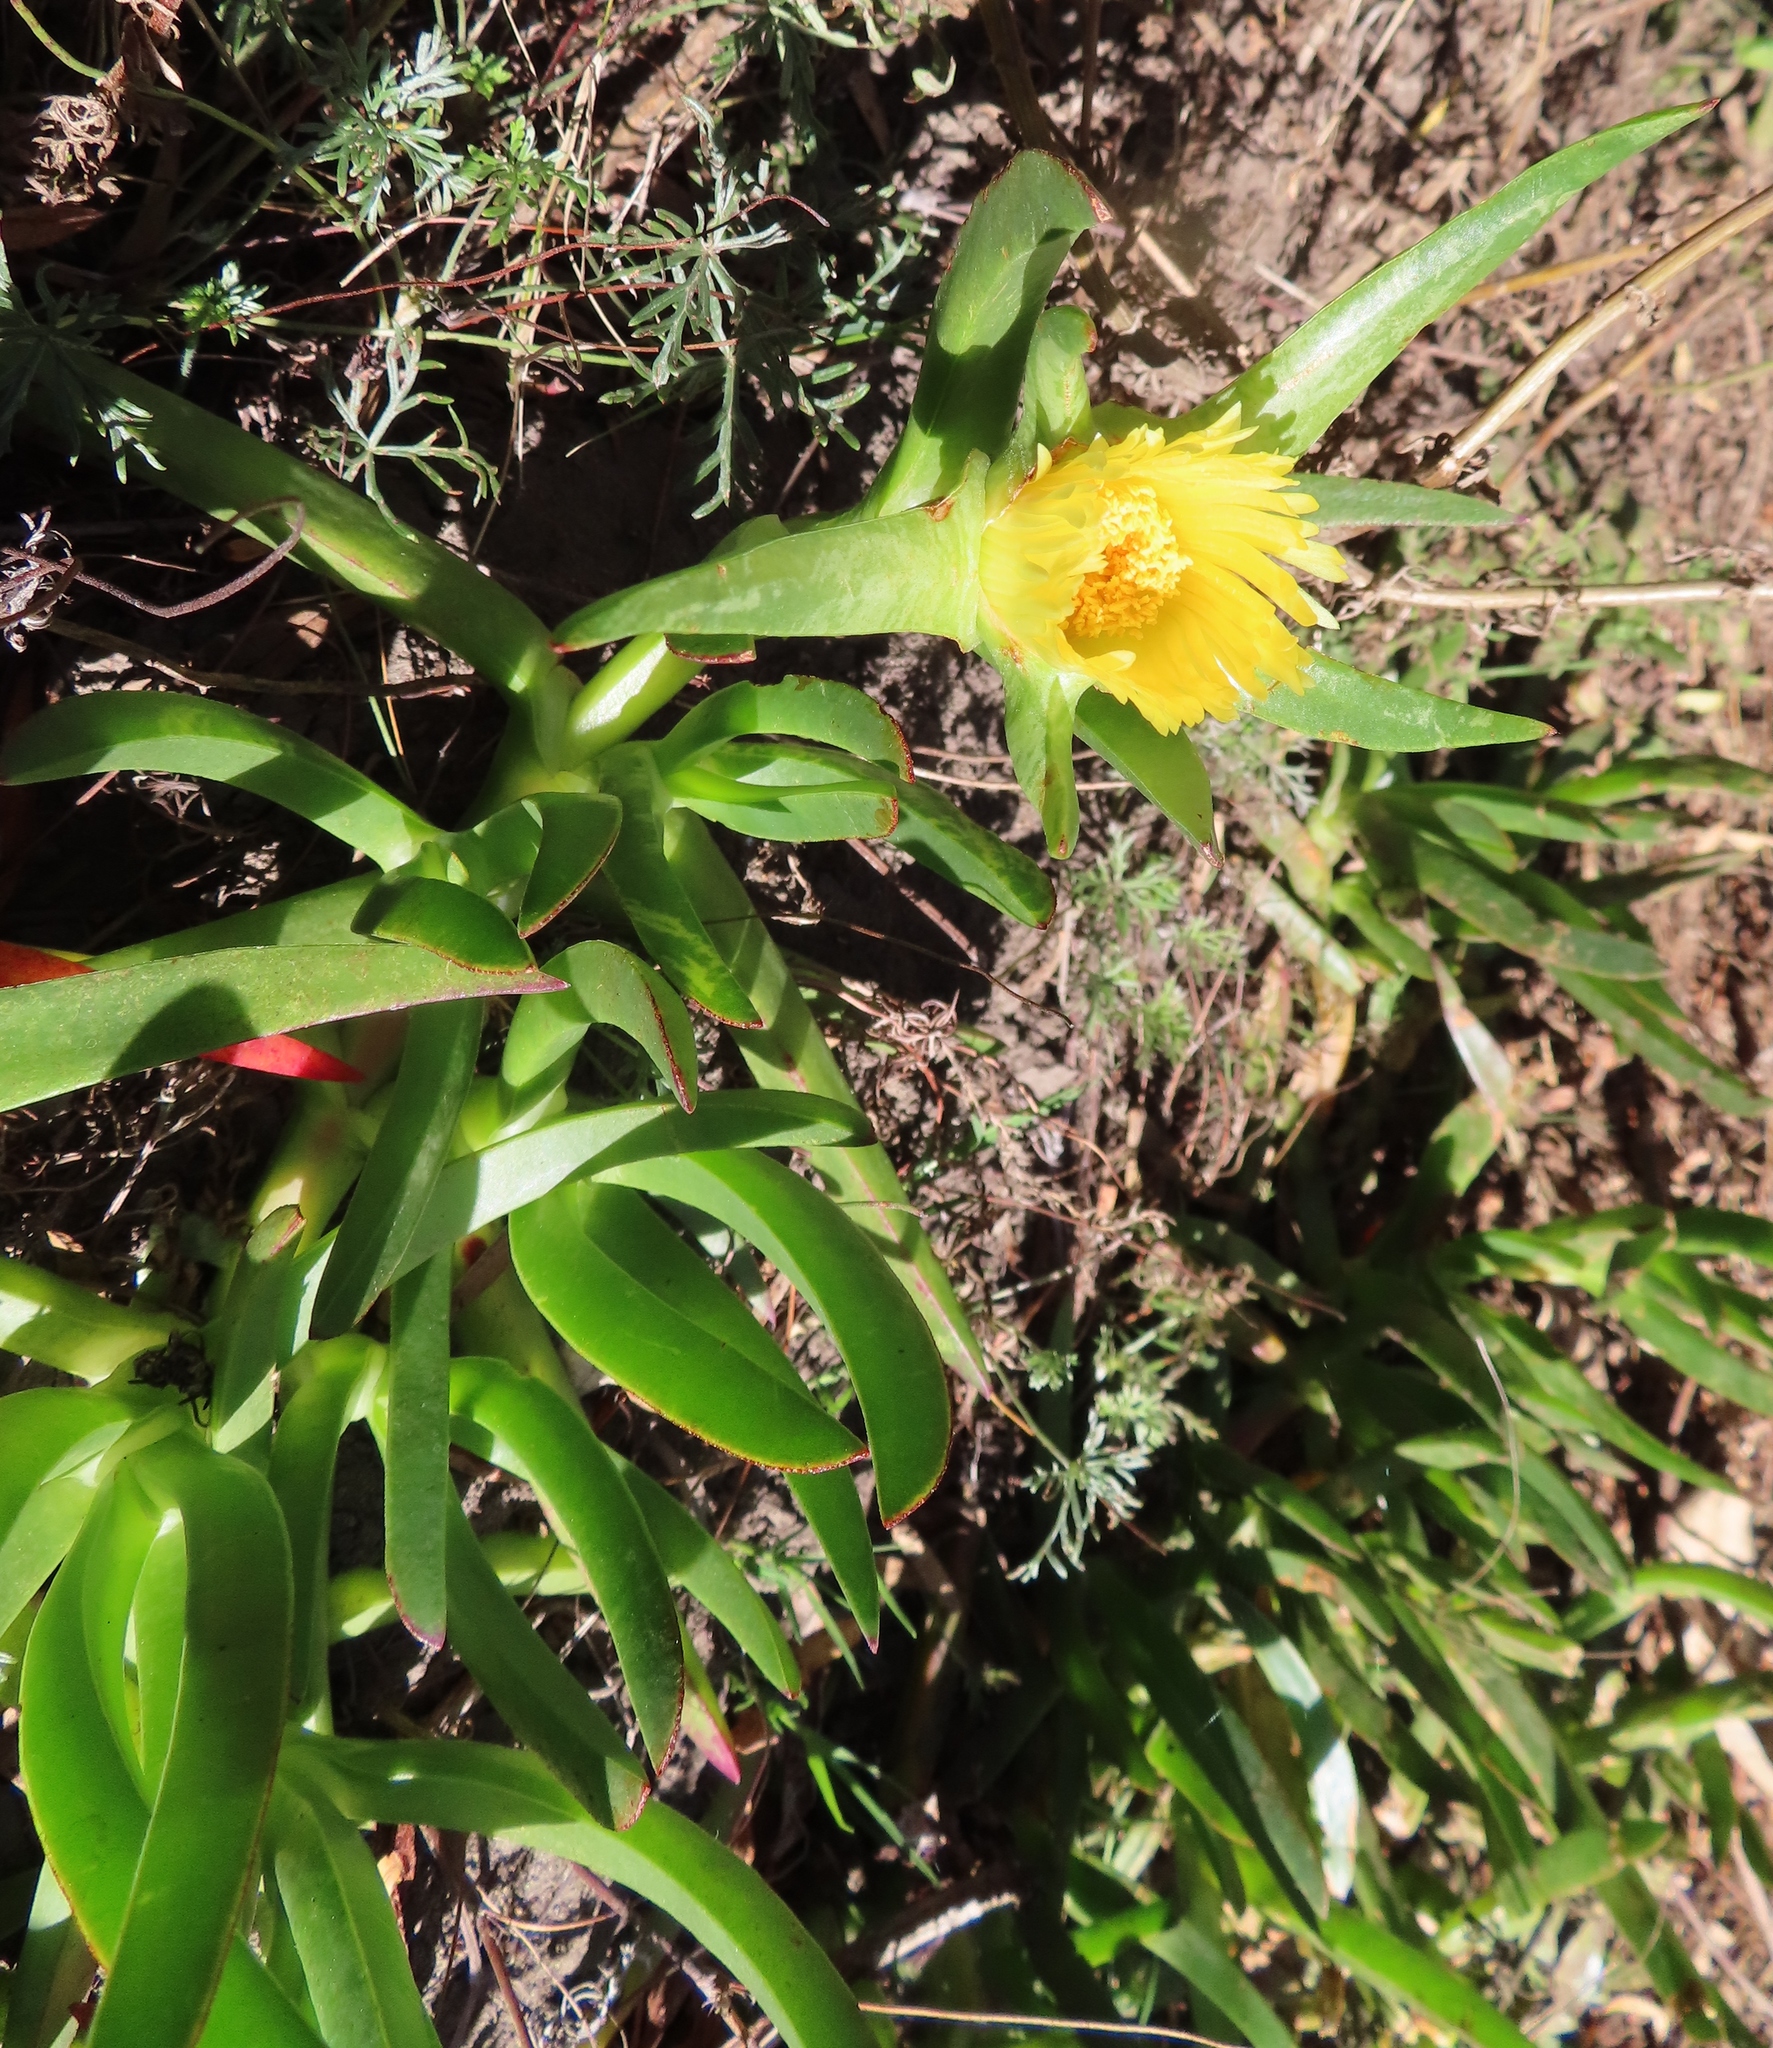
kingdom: Plantae
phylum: Tracheophyta
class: Magnoliopsida
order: Caryophyllales
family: Aizoaceae
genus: Carpobrotus
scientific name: Carpobrotus edulis
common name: Hottentot-fig
